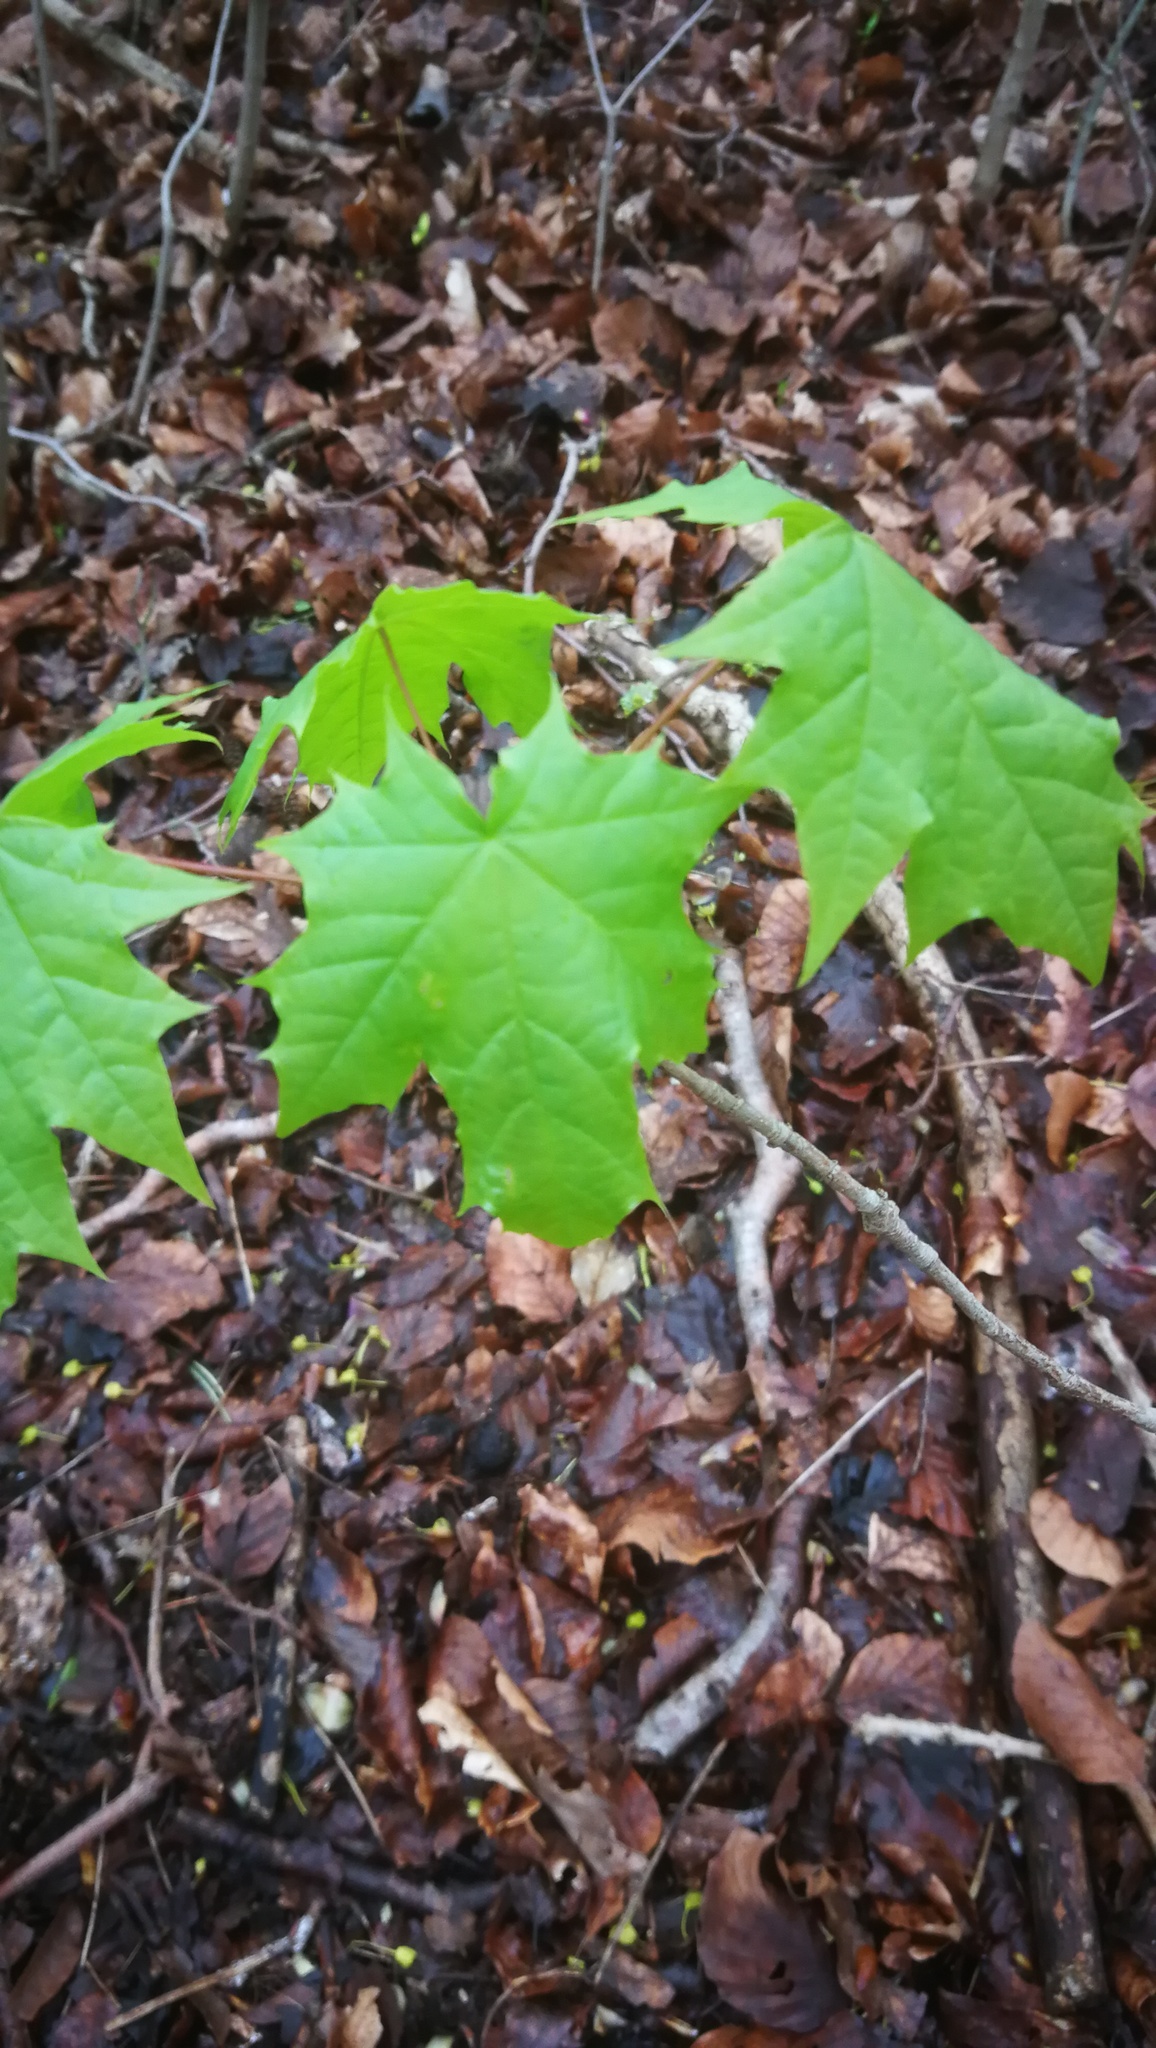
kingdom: Plantae
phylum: Tracheophyta
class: Magnoliopsida
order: Sapindales
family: Sapindaceae
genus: Acer
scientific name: Acer platanoides
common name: Norway maple
